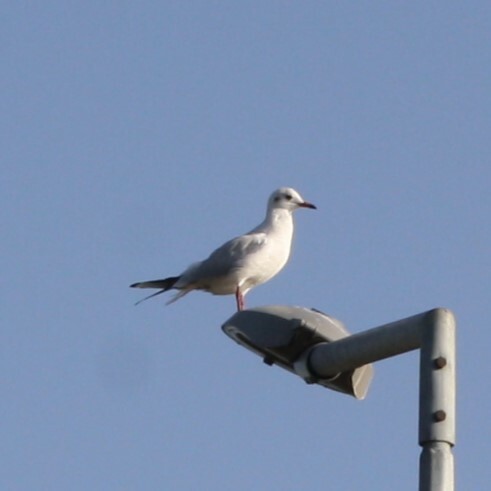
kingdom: Animalia
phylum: Chordata
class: Aves
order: Charadriiformes
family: Laridae
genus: Chroicocephalus
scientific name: Chroicocephalus ridibundus
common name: Black-headed gull
